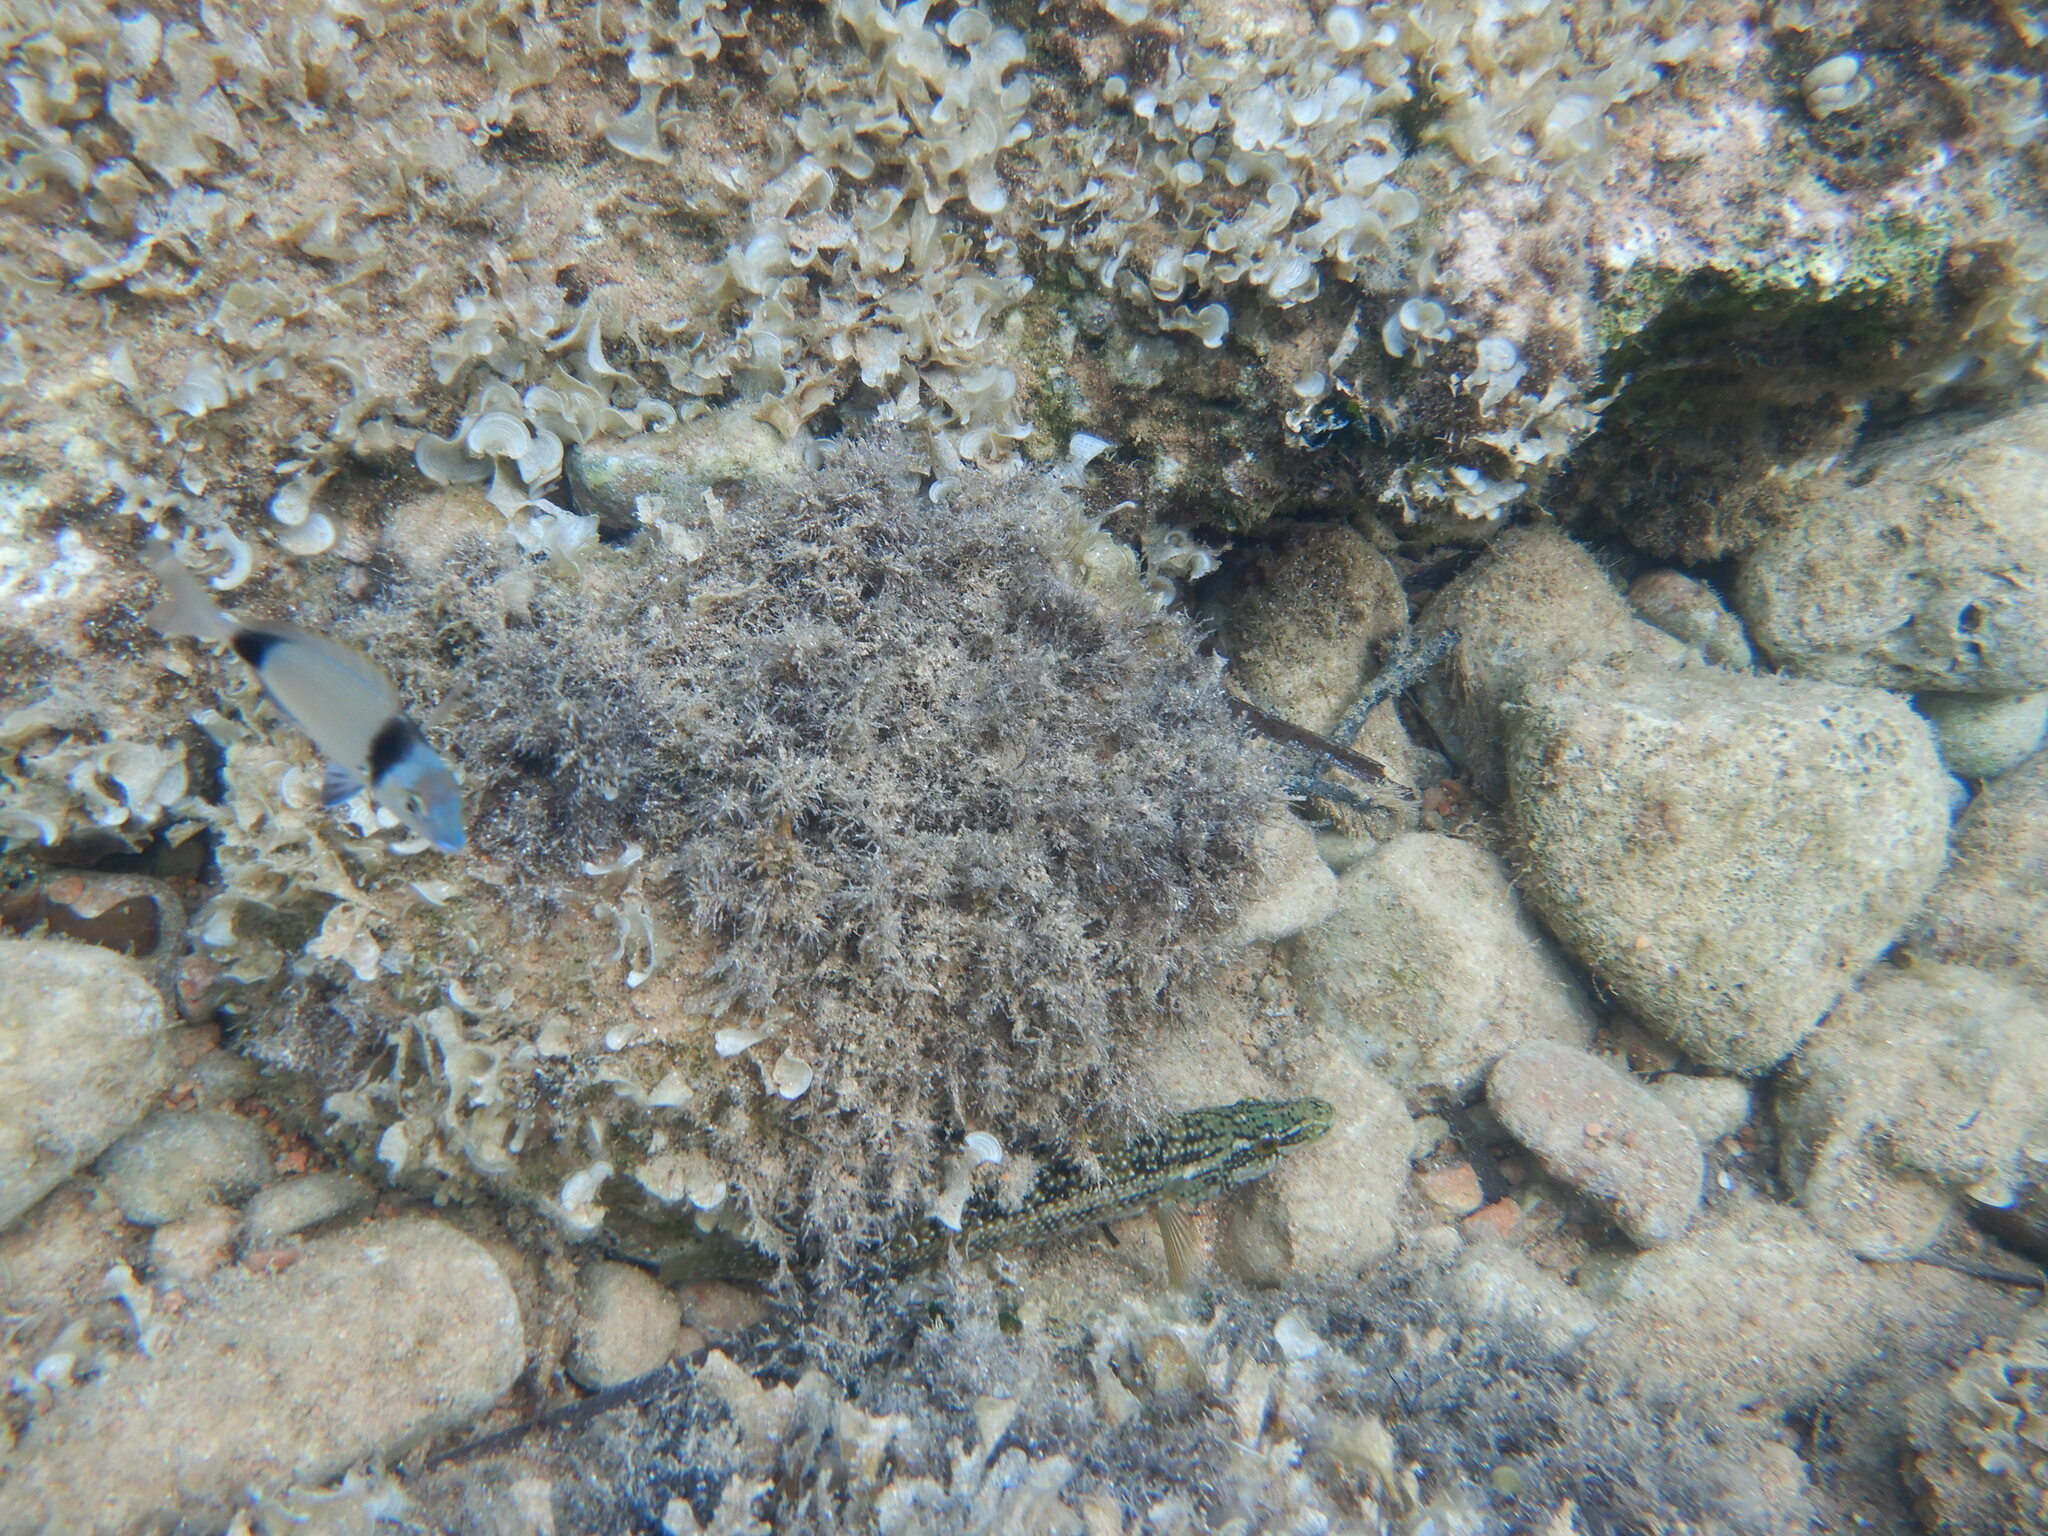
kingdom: Animalia
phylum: Chordata
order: Perciformes
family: Labridae
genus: Labrus
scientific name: Labrus viridis
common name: Green wrasse
